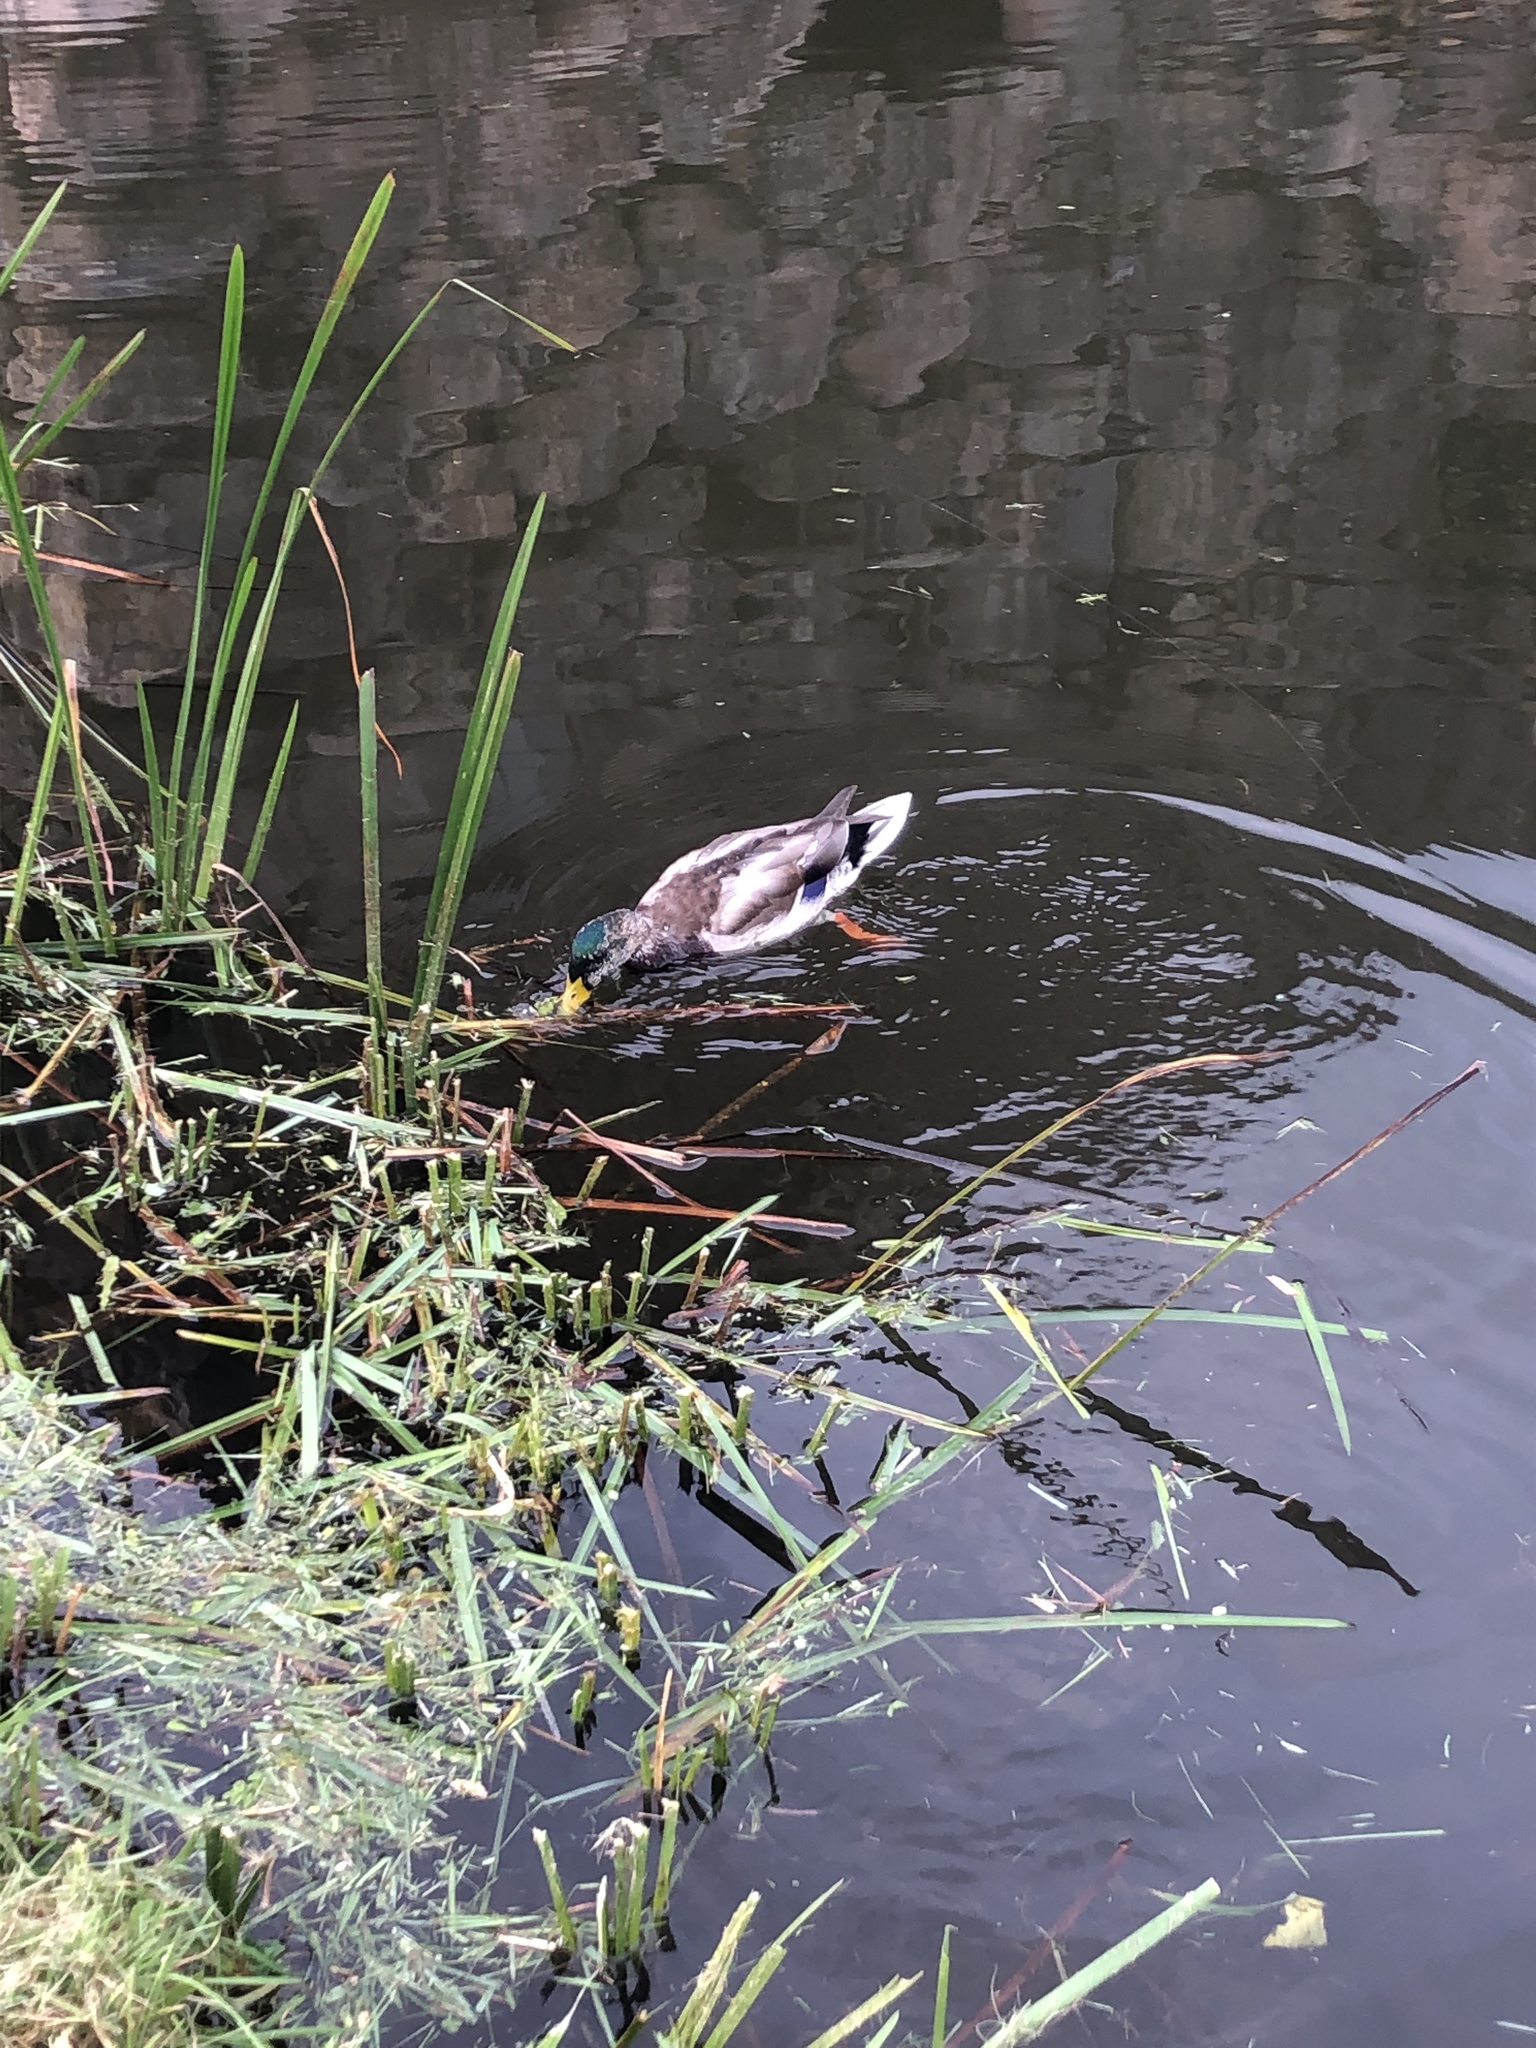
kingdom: Animalia
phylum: Chordata
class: Aves
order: Anseriformes
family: Anatidae
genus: Anas
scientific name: Anas platyrhynchos
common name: Mallard
